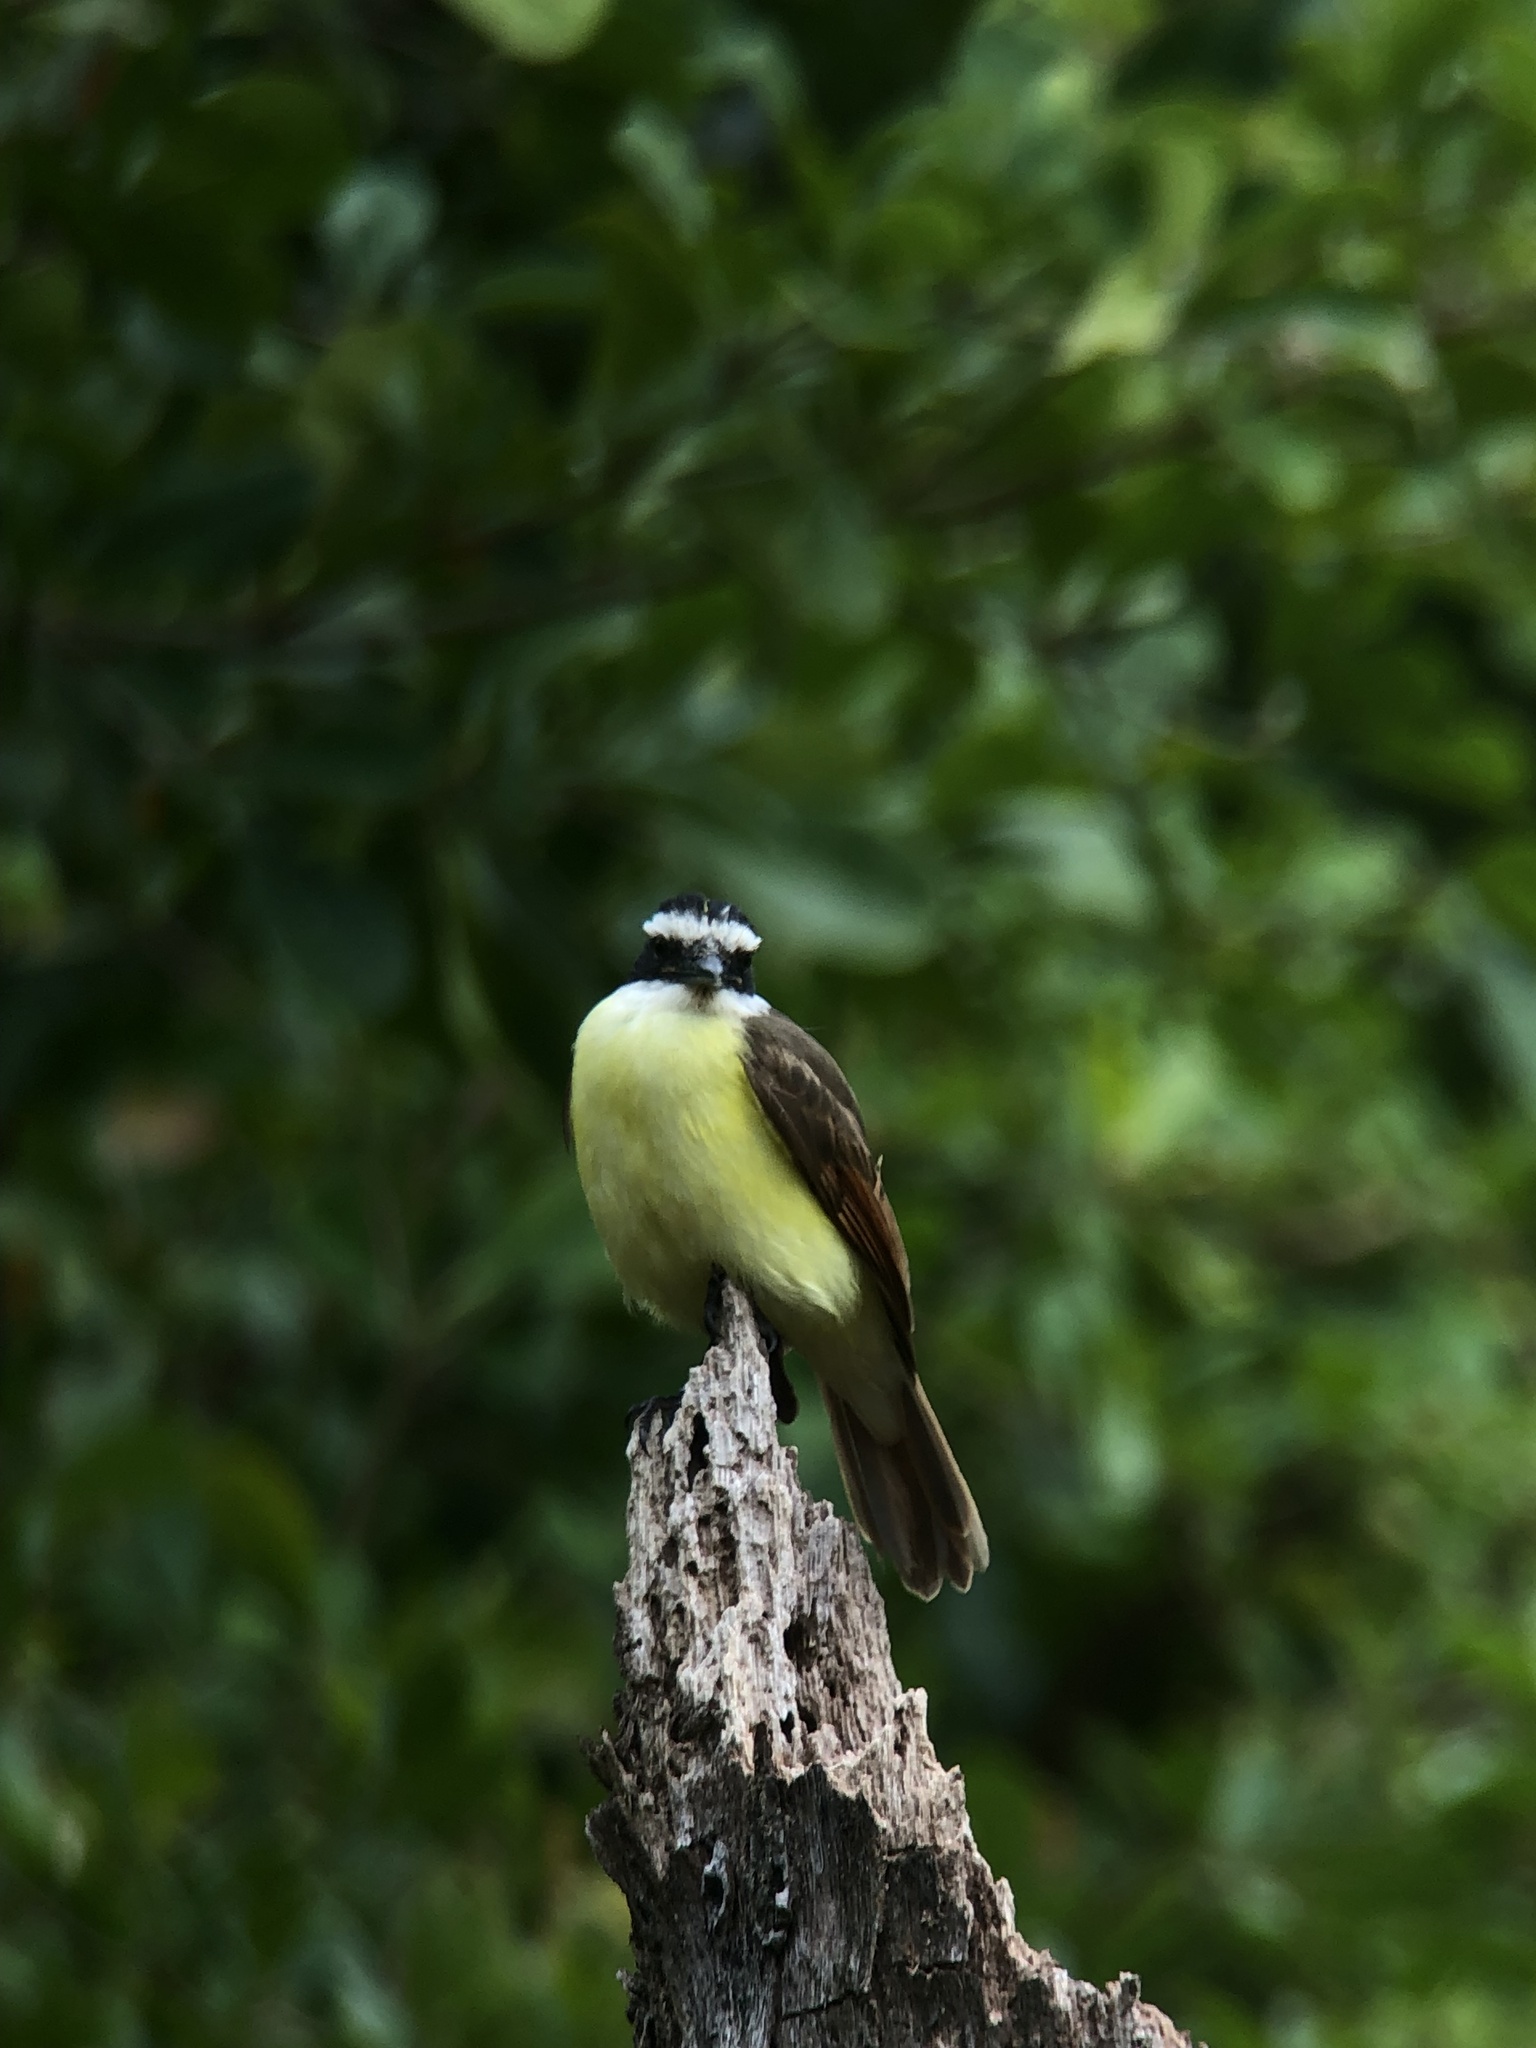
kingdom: Animalia
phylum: Chordata
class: Aves
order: Passeriformes
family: Tyrannidae
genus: Pitangus
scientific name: Pitangus sulphuratus
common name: Great kiskadee
